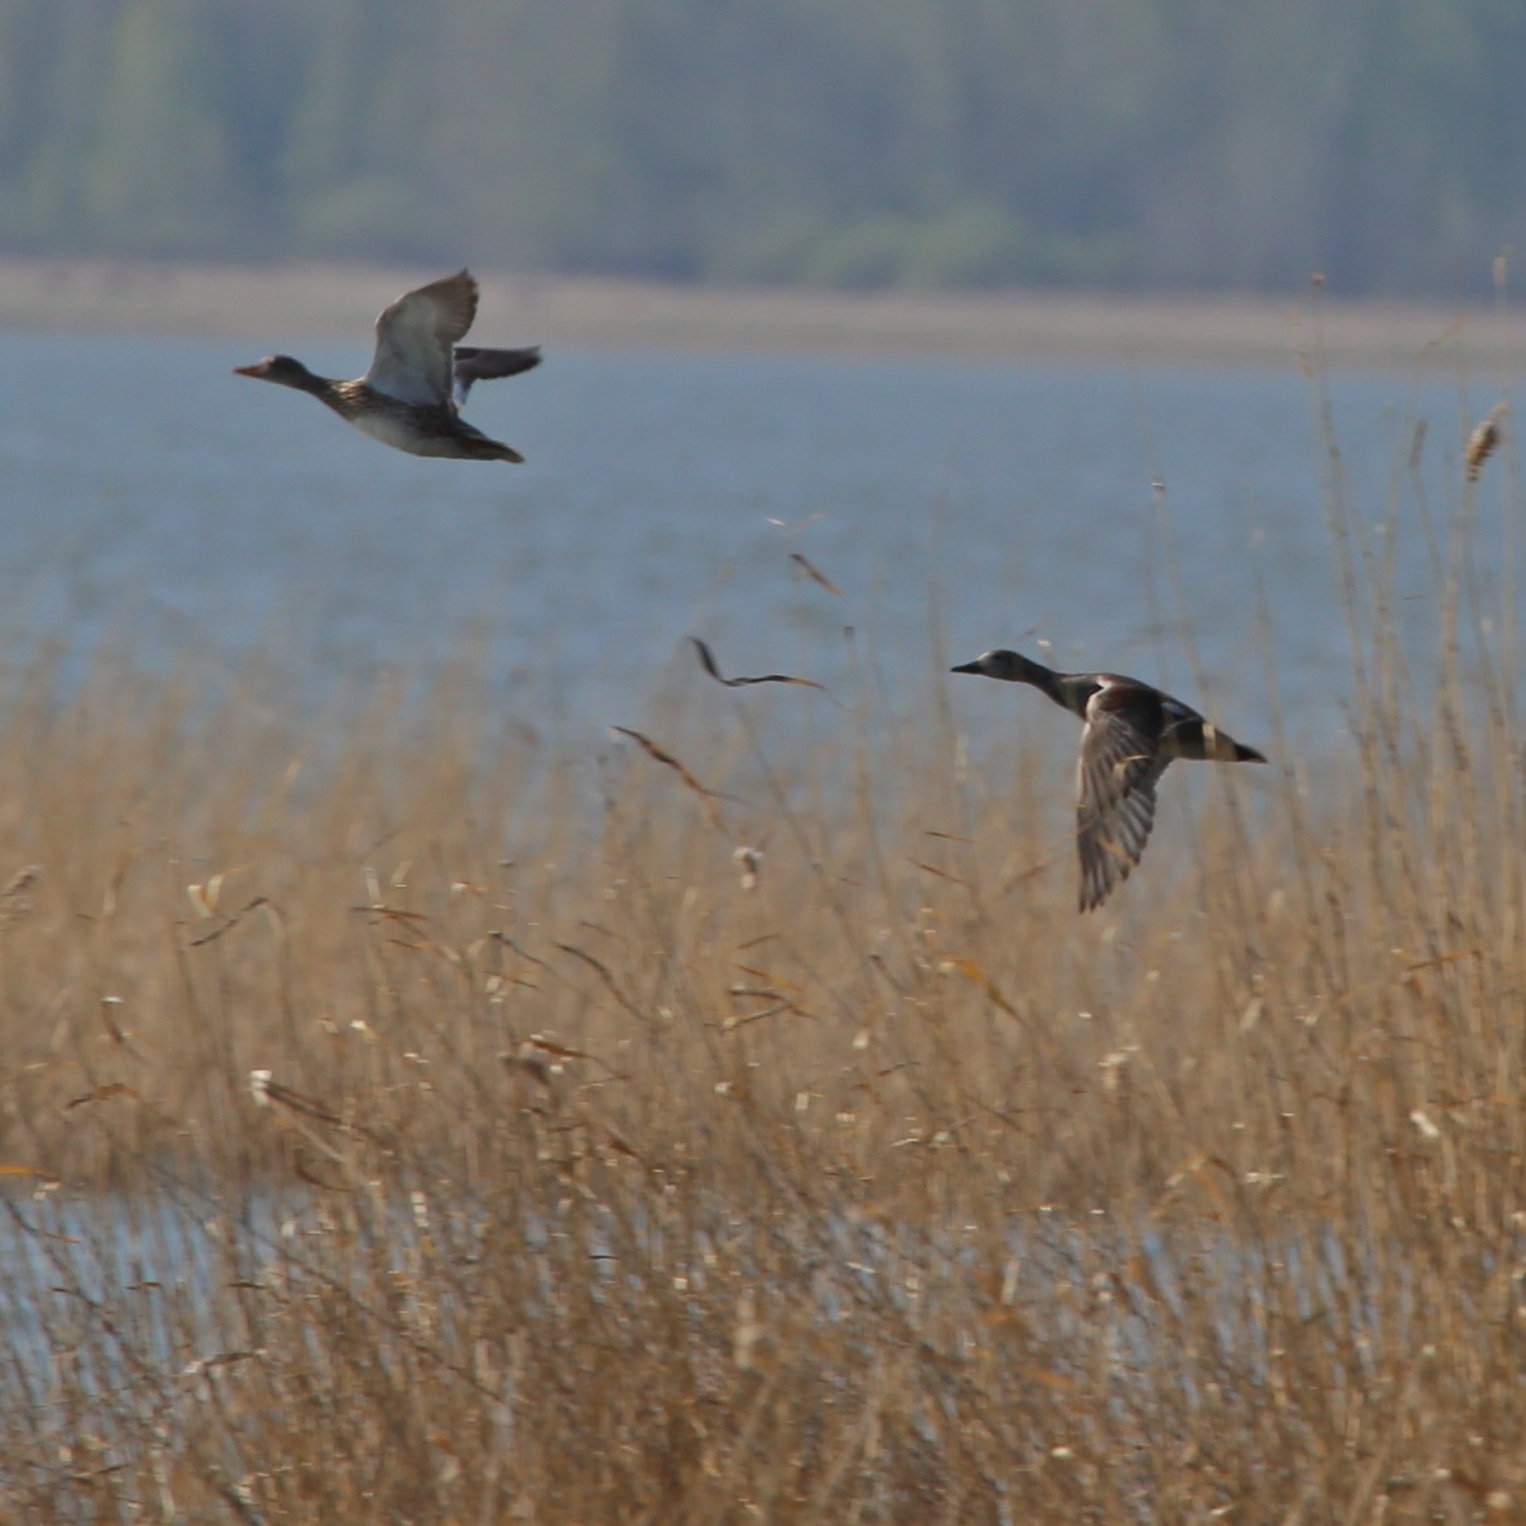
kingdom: Animalia
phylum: Chordata
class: Aves
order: Anseriformes
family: Anatidae
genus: Mareca
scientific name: Mareca strepera
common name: Gadwall
